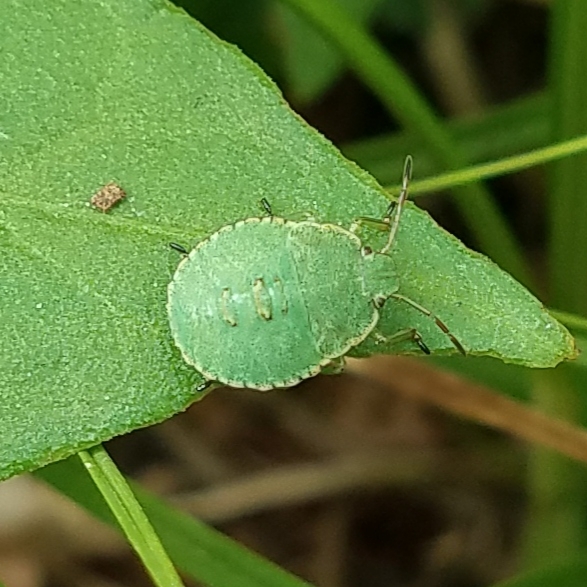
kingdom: Animalia
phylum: Arthropoda
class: Insecta
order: Hemiptera
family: Pentatomidae
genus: Palomena
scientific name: Palomena prasina
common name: Green shieldbug
